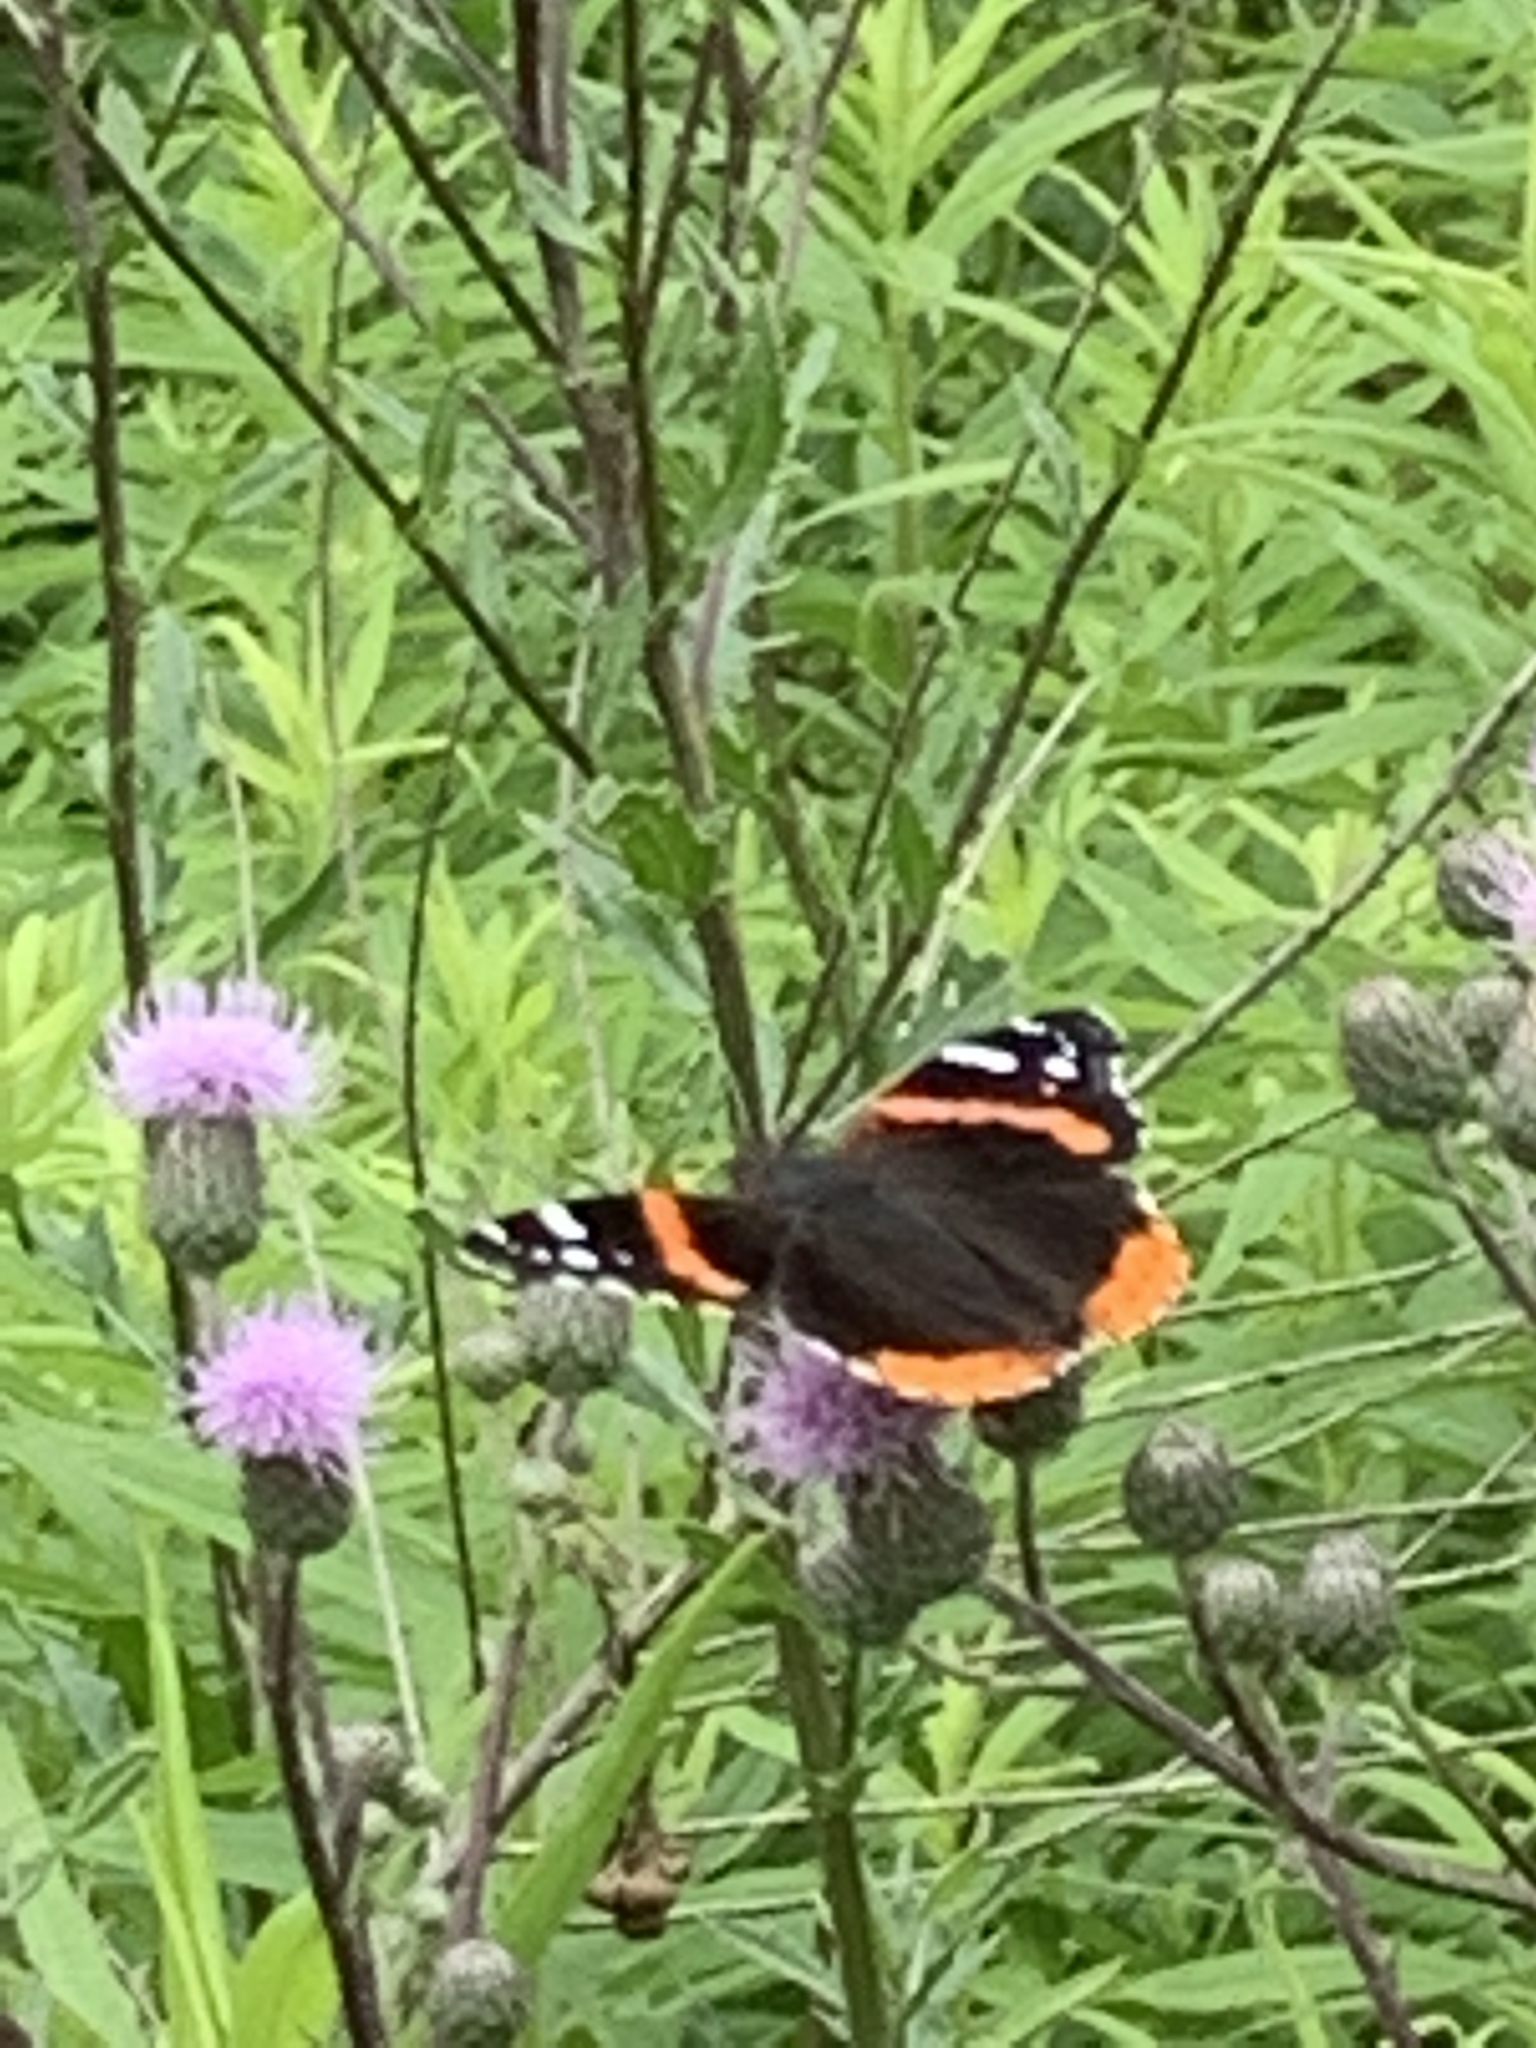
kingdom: Animalia
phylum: Arthropoda
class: Insecta
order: Lepidoptera
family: Nymphalidae
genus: Vanessa
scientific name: Vanessa atalanta
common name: Red admiral
